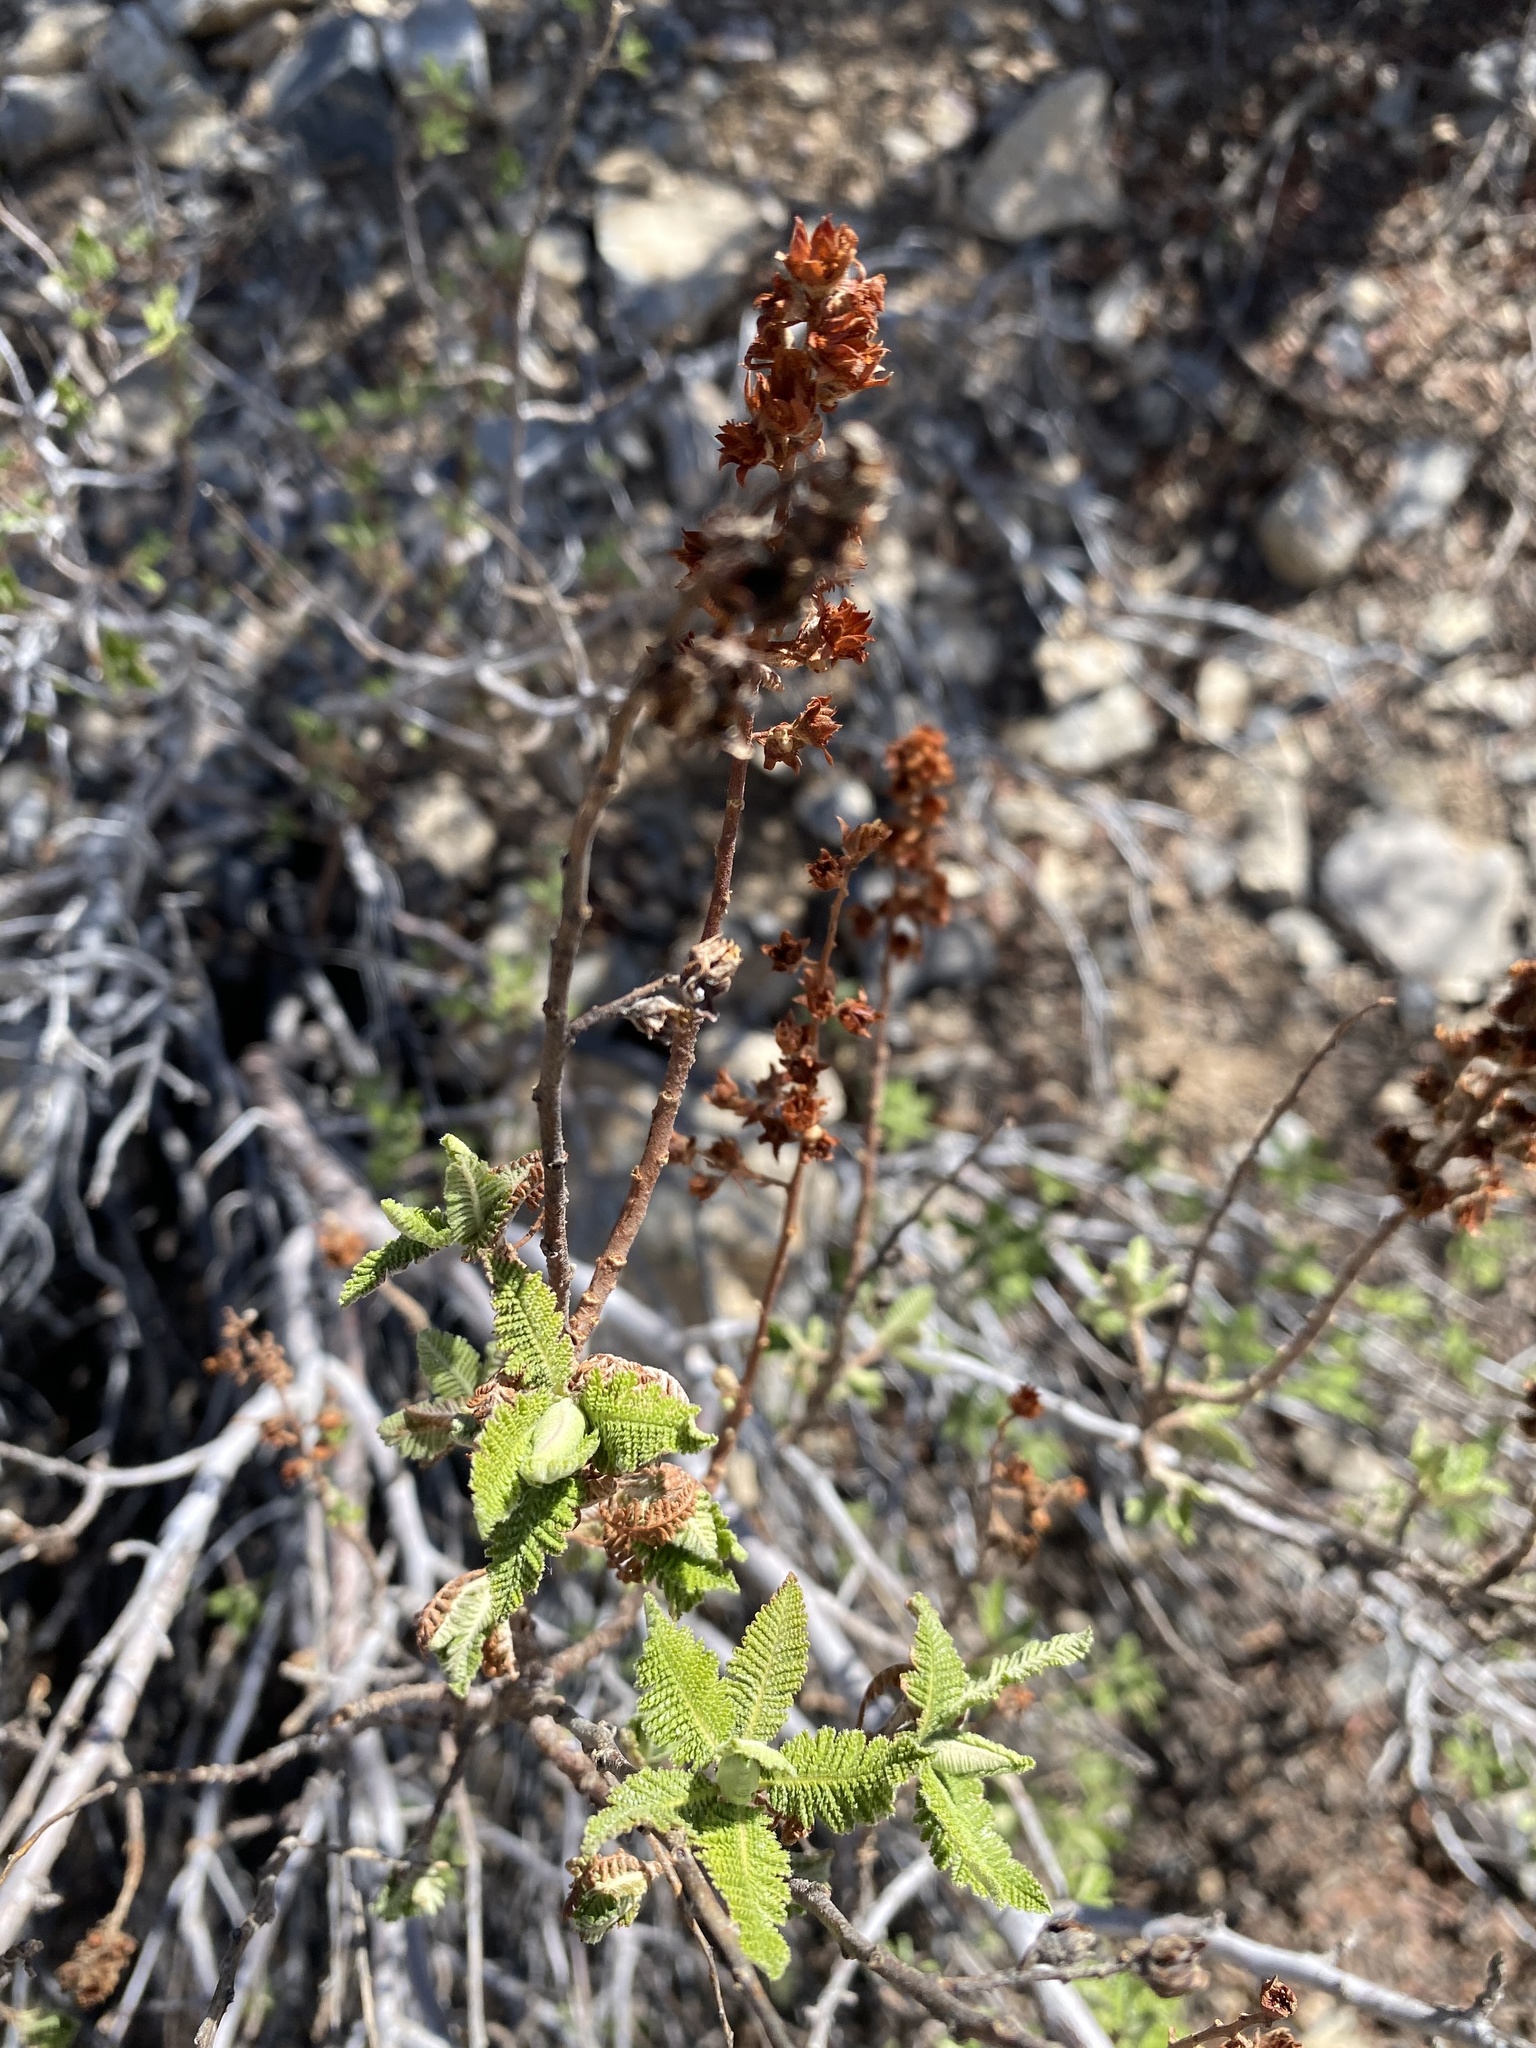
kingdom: Plantae
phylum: Tracheophyta
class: Magnoliopsida
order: Rosales
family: Rosaceae
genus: Chamaebatiaria
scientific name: Chamaebatiaria millefolium
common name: Fernbush
